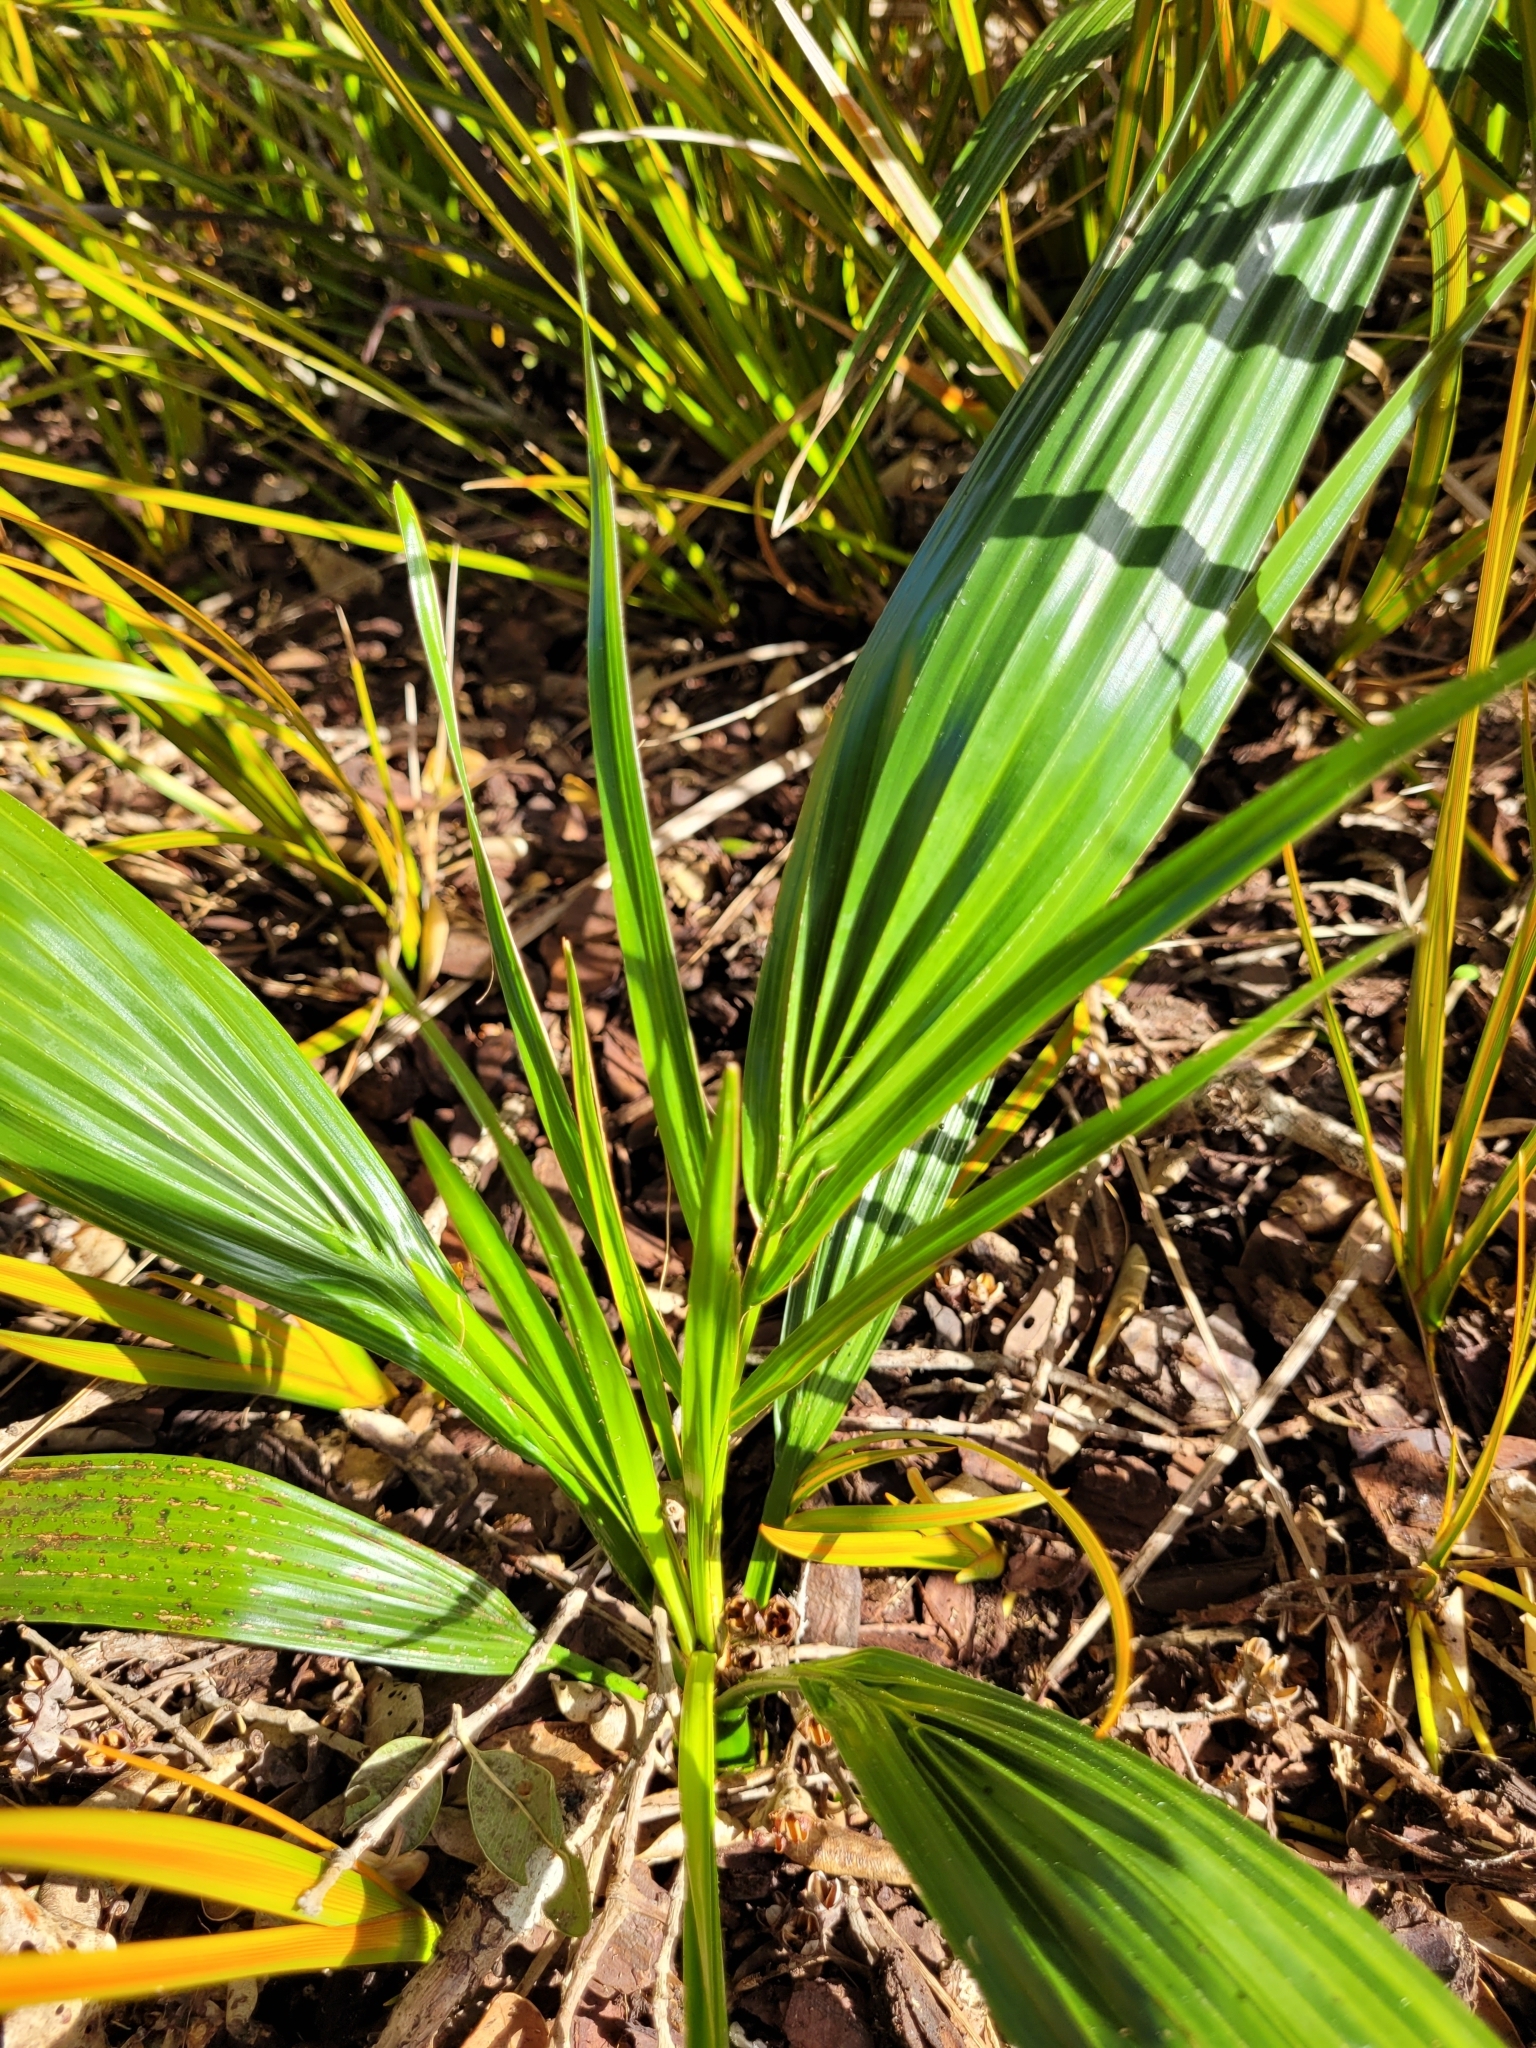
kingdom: Plantae
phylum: Tracheophyta
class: Liliopsida
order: Arecales
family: Arecaceae
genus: Phoenix
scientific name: Phoenix canariensis
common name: Canary island date palm
